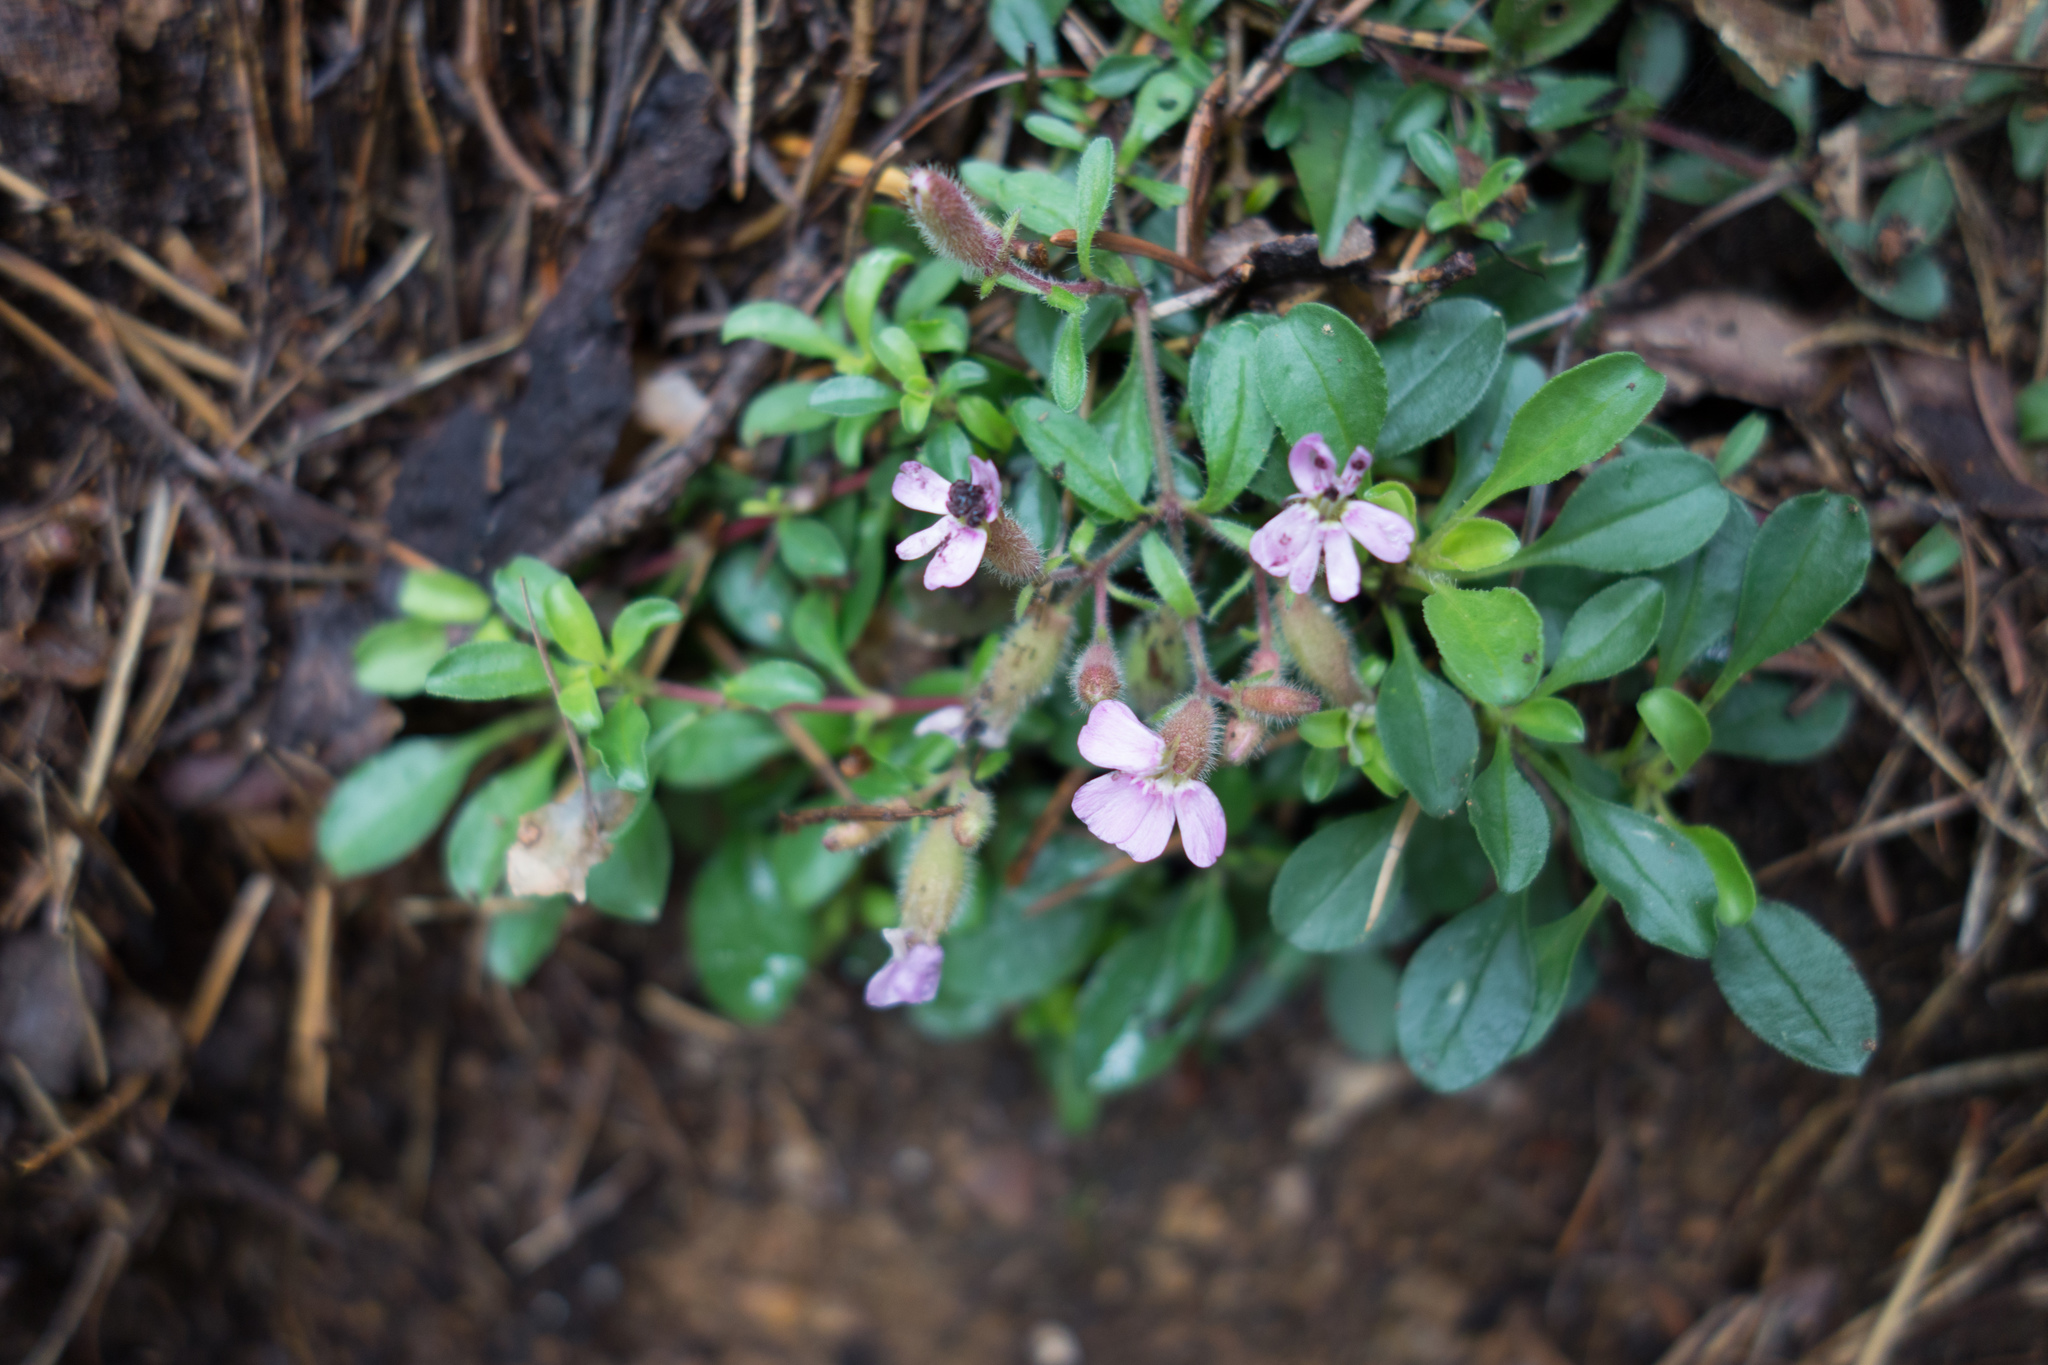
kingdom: Plantae
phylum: Tracheophyta
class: Magnoliopsida
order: Caryophyllales
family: Caryophyllaceae
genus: Saponaria
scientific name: Saponaria ocymoides
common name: Rock soapwort
